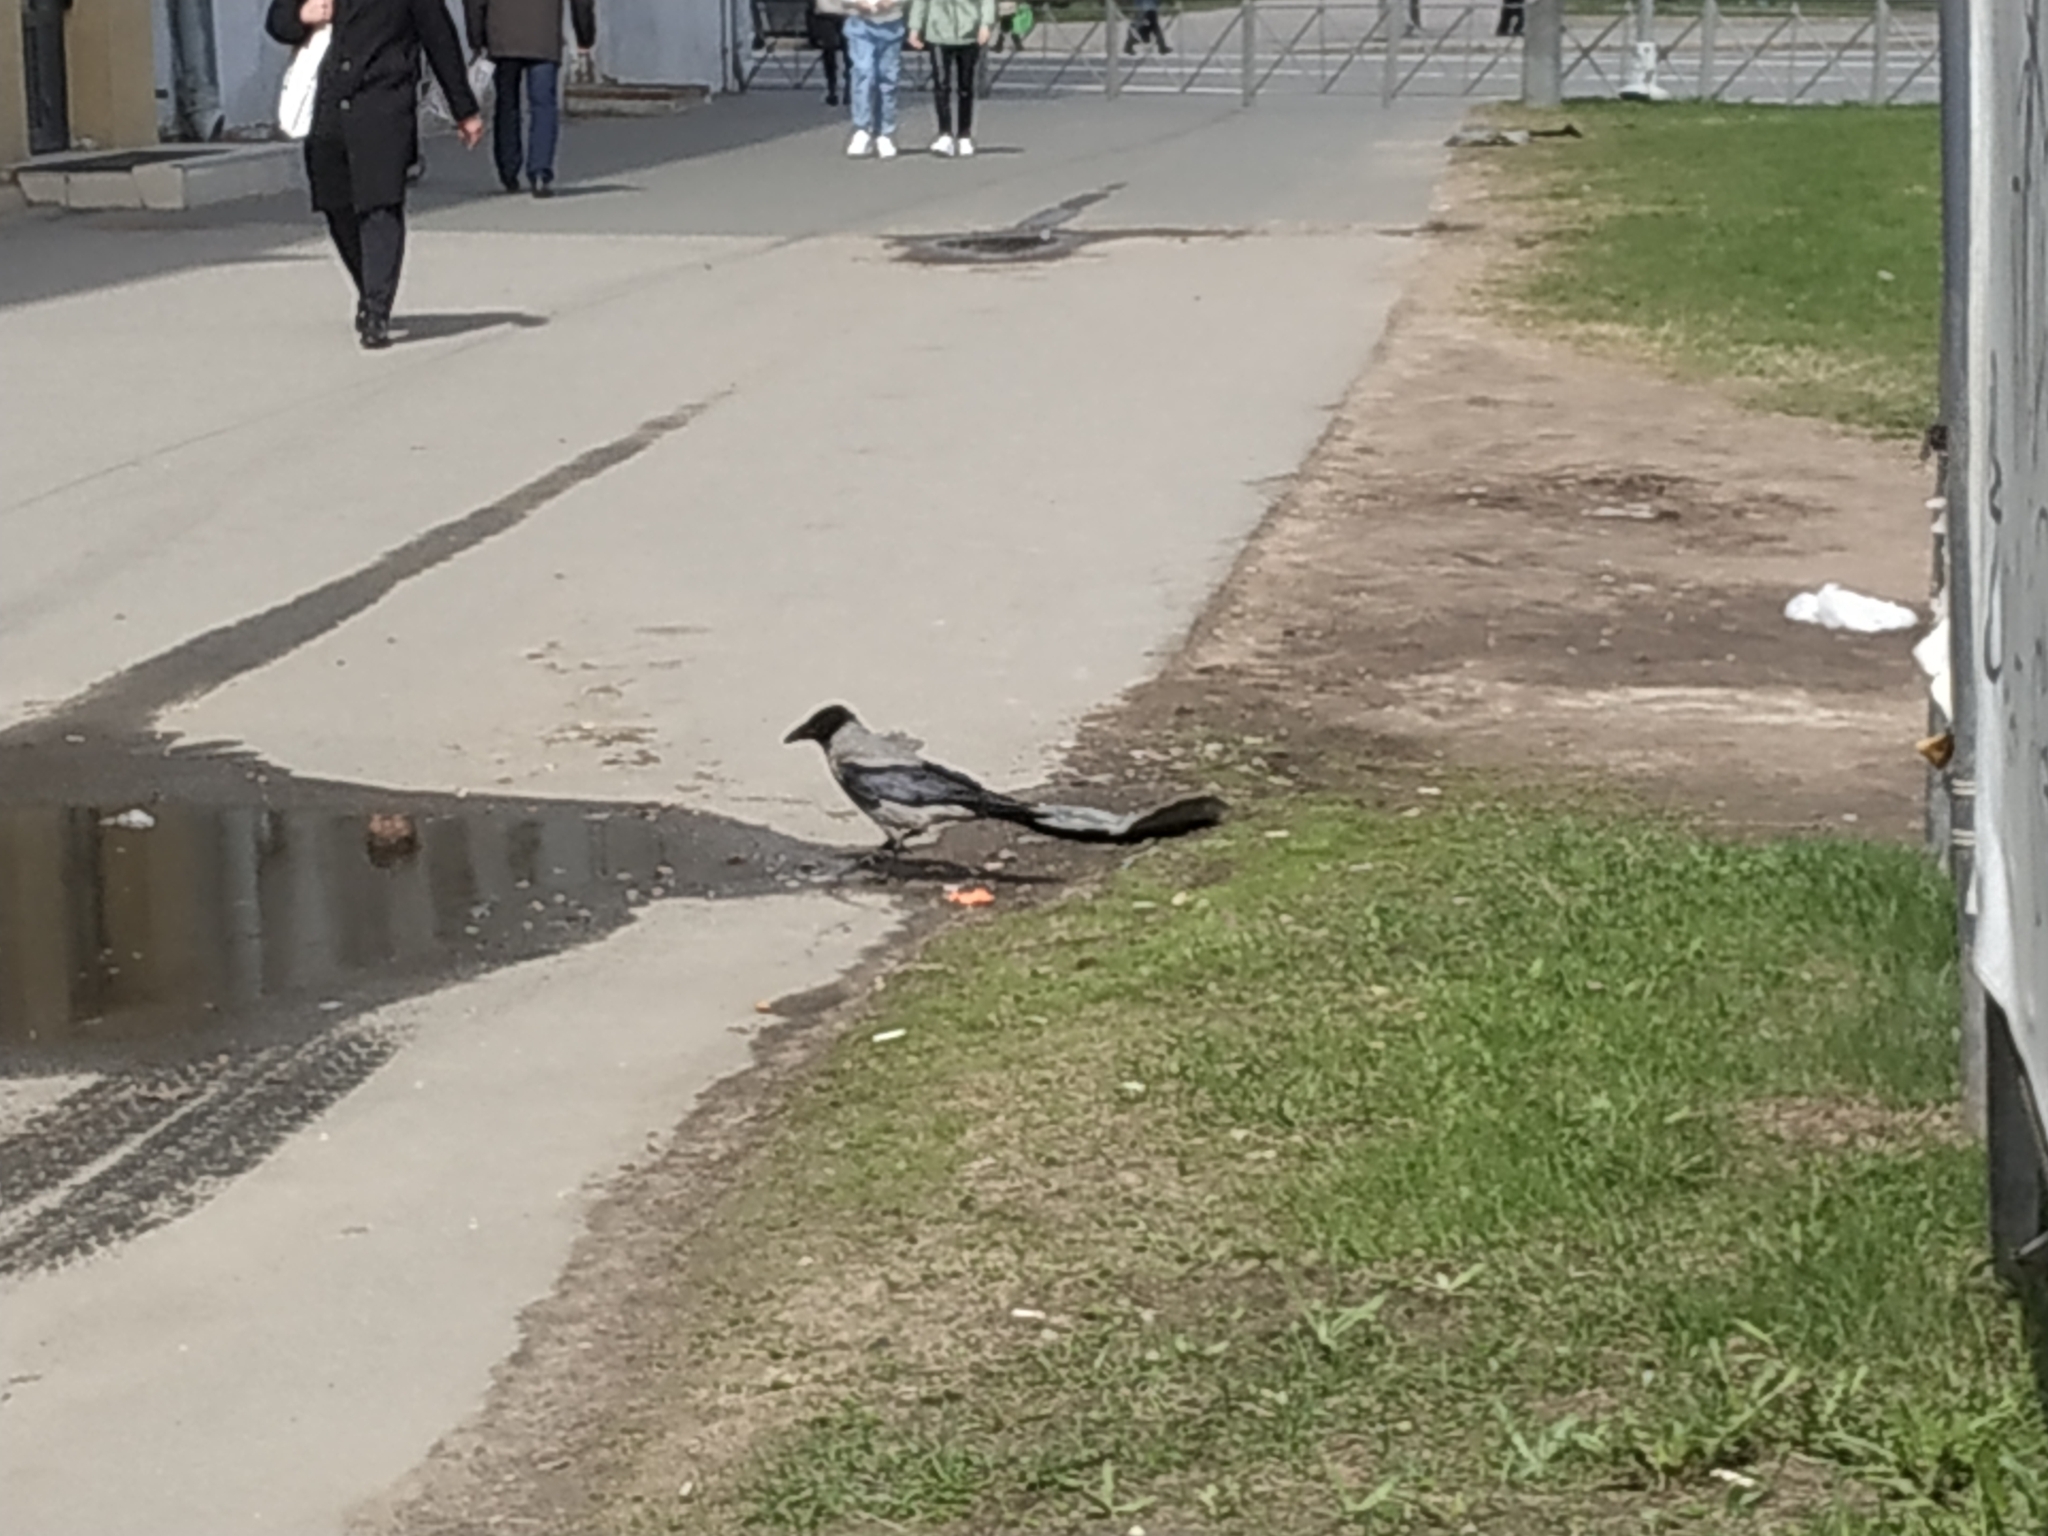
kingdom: Animalia
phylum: Chordata
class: Aves
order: Passeriformes
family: Corvidae
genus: Corvus
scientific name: Corvus cornix
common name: Hooded crow
